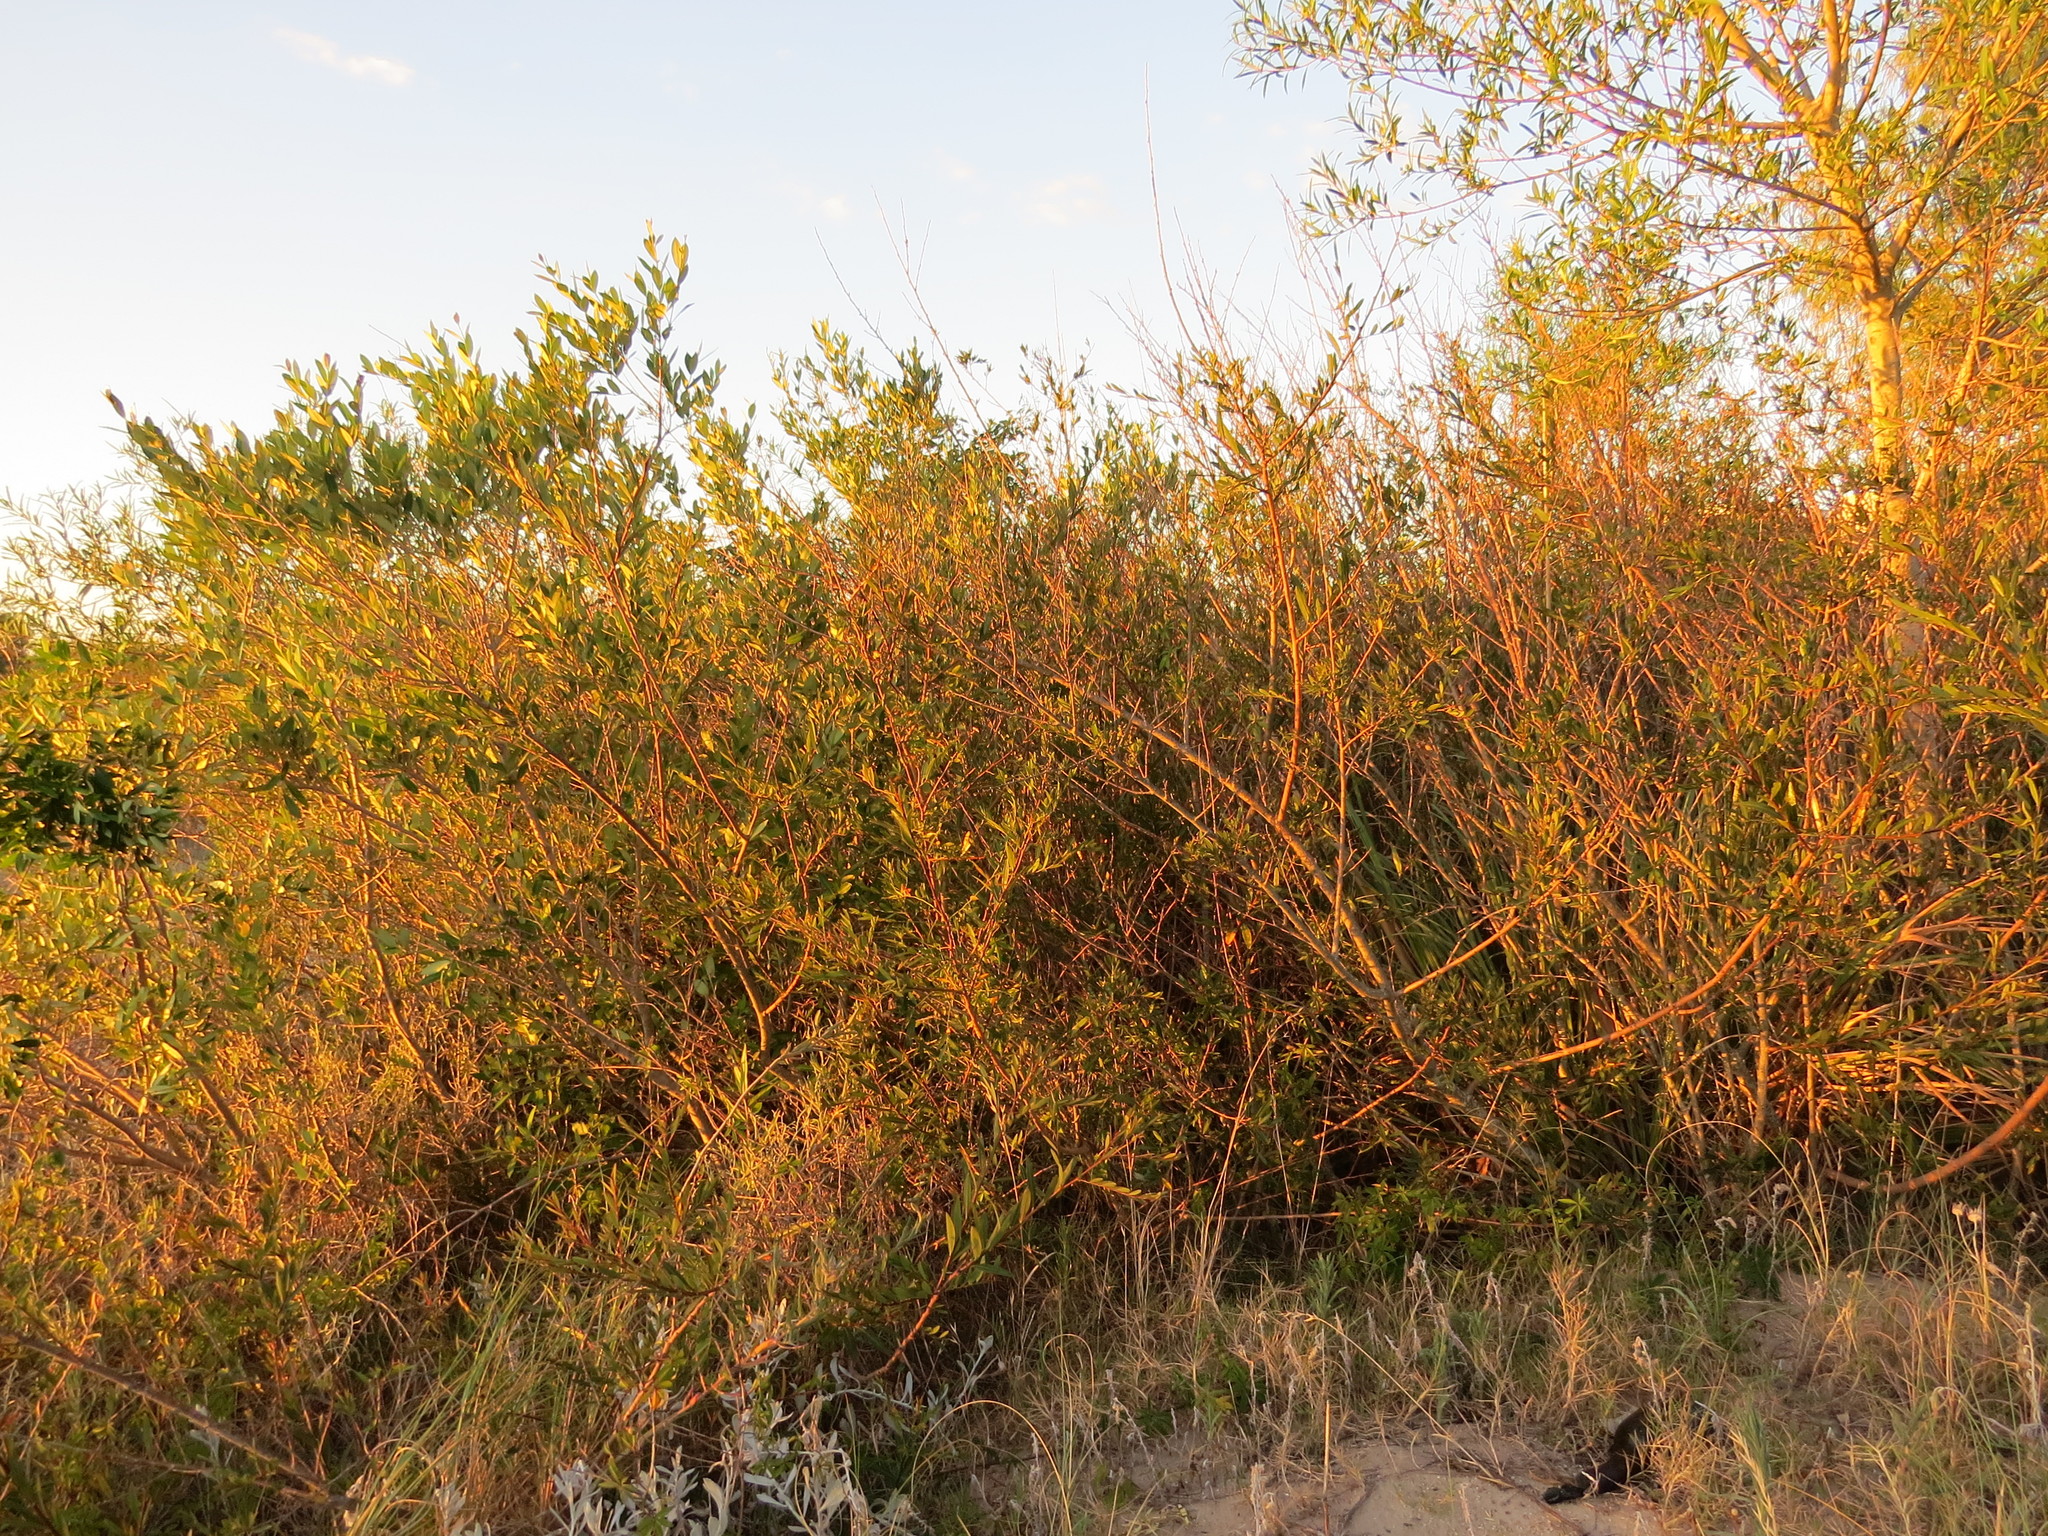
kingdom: Plantae
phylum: Tracheophyta
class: Magnoliopsida
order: Fabales
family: Fabaceae
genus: Acacia
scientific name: Acacia longifolia
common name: Sydney golden wattle
